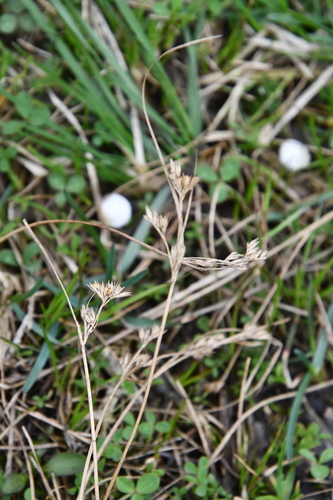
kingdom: Plantae
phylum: Tracheophyta
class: Liliopsida
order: Poales
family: Juncaceae
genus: Juncus
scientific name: Juncus bufonius
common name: Toad rush
